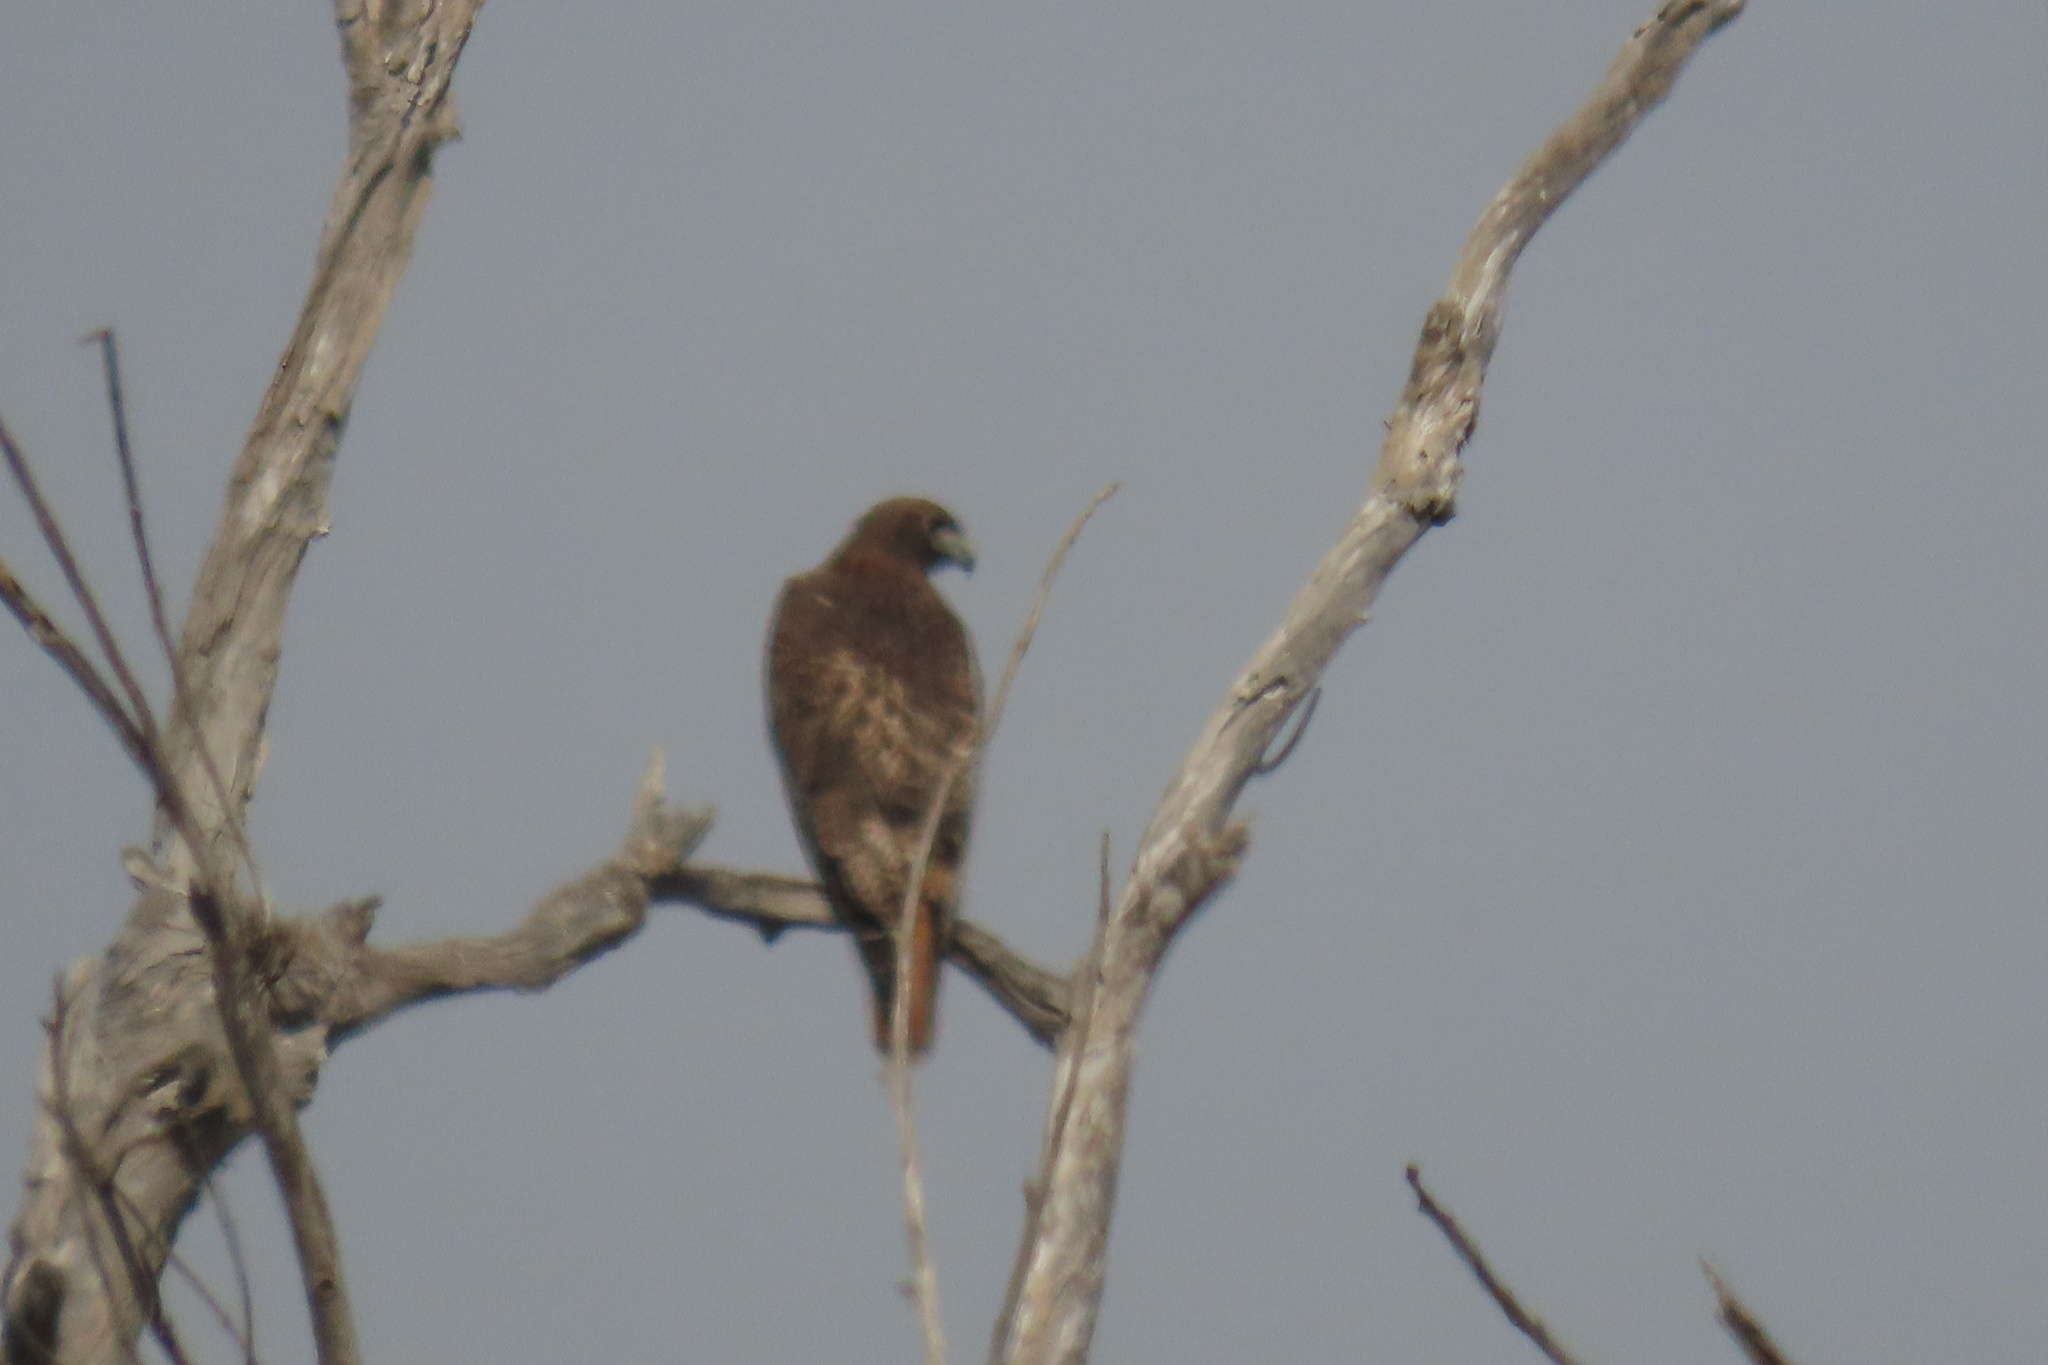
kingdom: Animalia
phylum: Chordata
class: Aves
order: Accipitriformes
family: Accipitridae
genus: Buteo
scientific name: Buteo jamaicensis
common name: Red-tailed hawk
